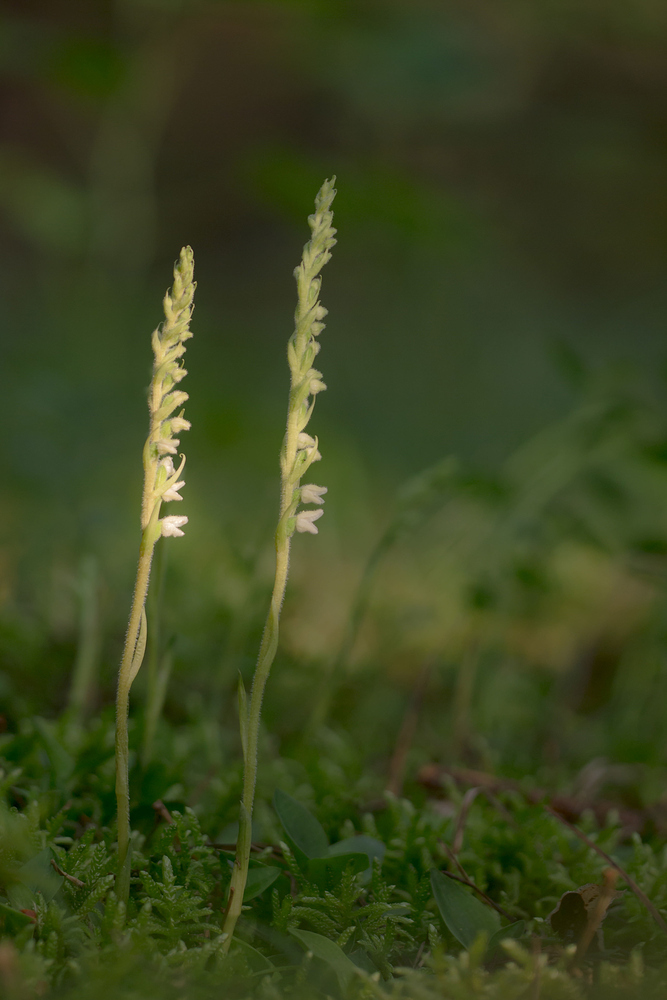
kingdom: Plantae
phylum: Tracheophyta
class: Liliopsida
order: Asparagales
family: Orchidaceae
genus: Goodyera
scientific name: Goodyera repens
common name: Creeping lady's-tresses
